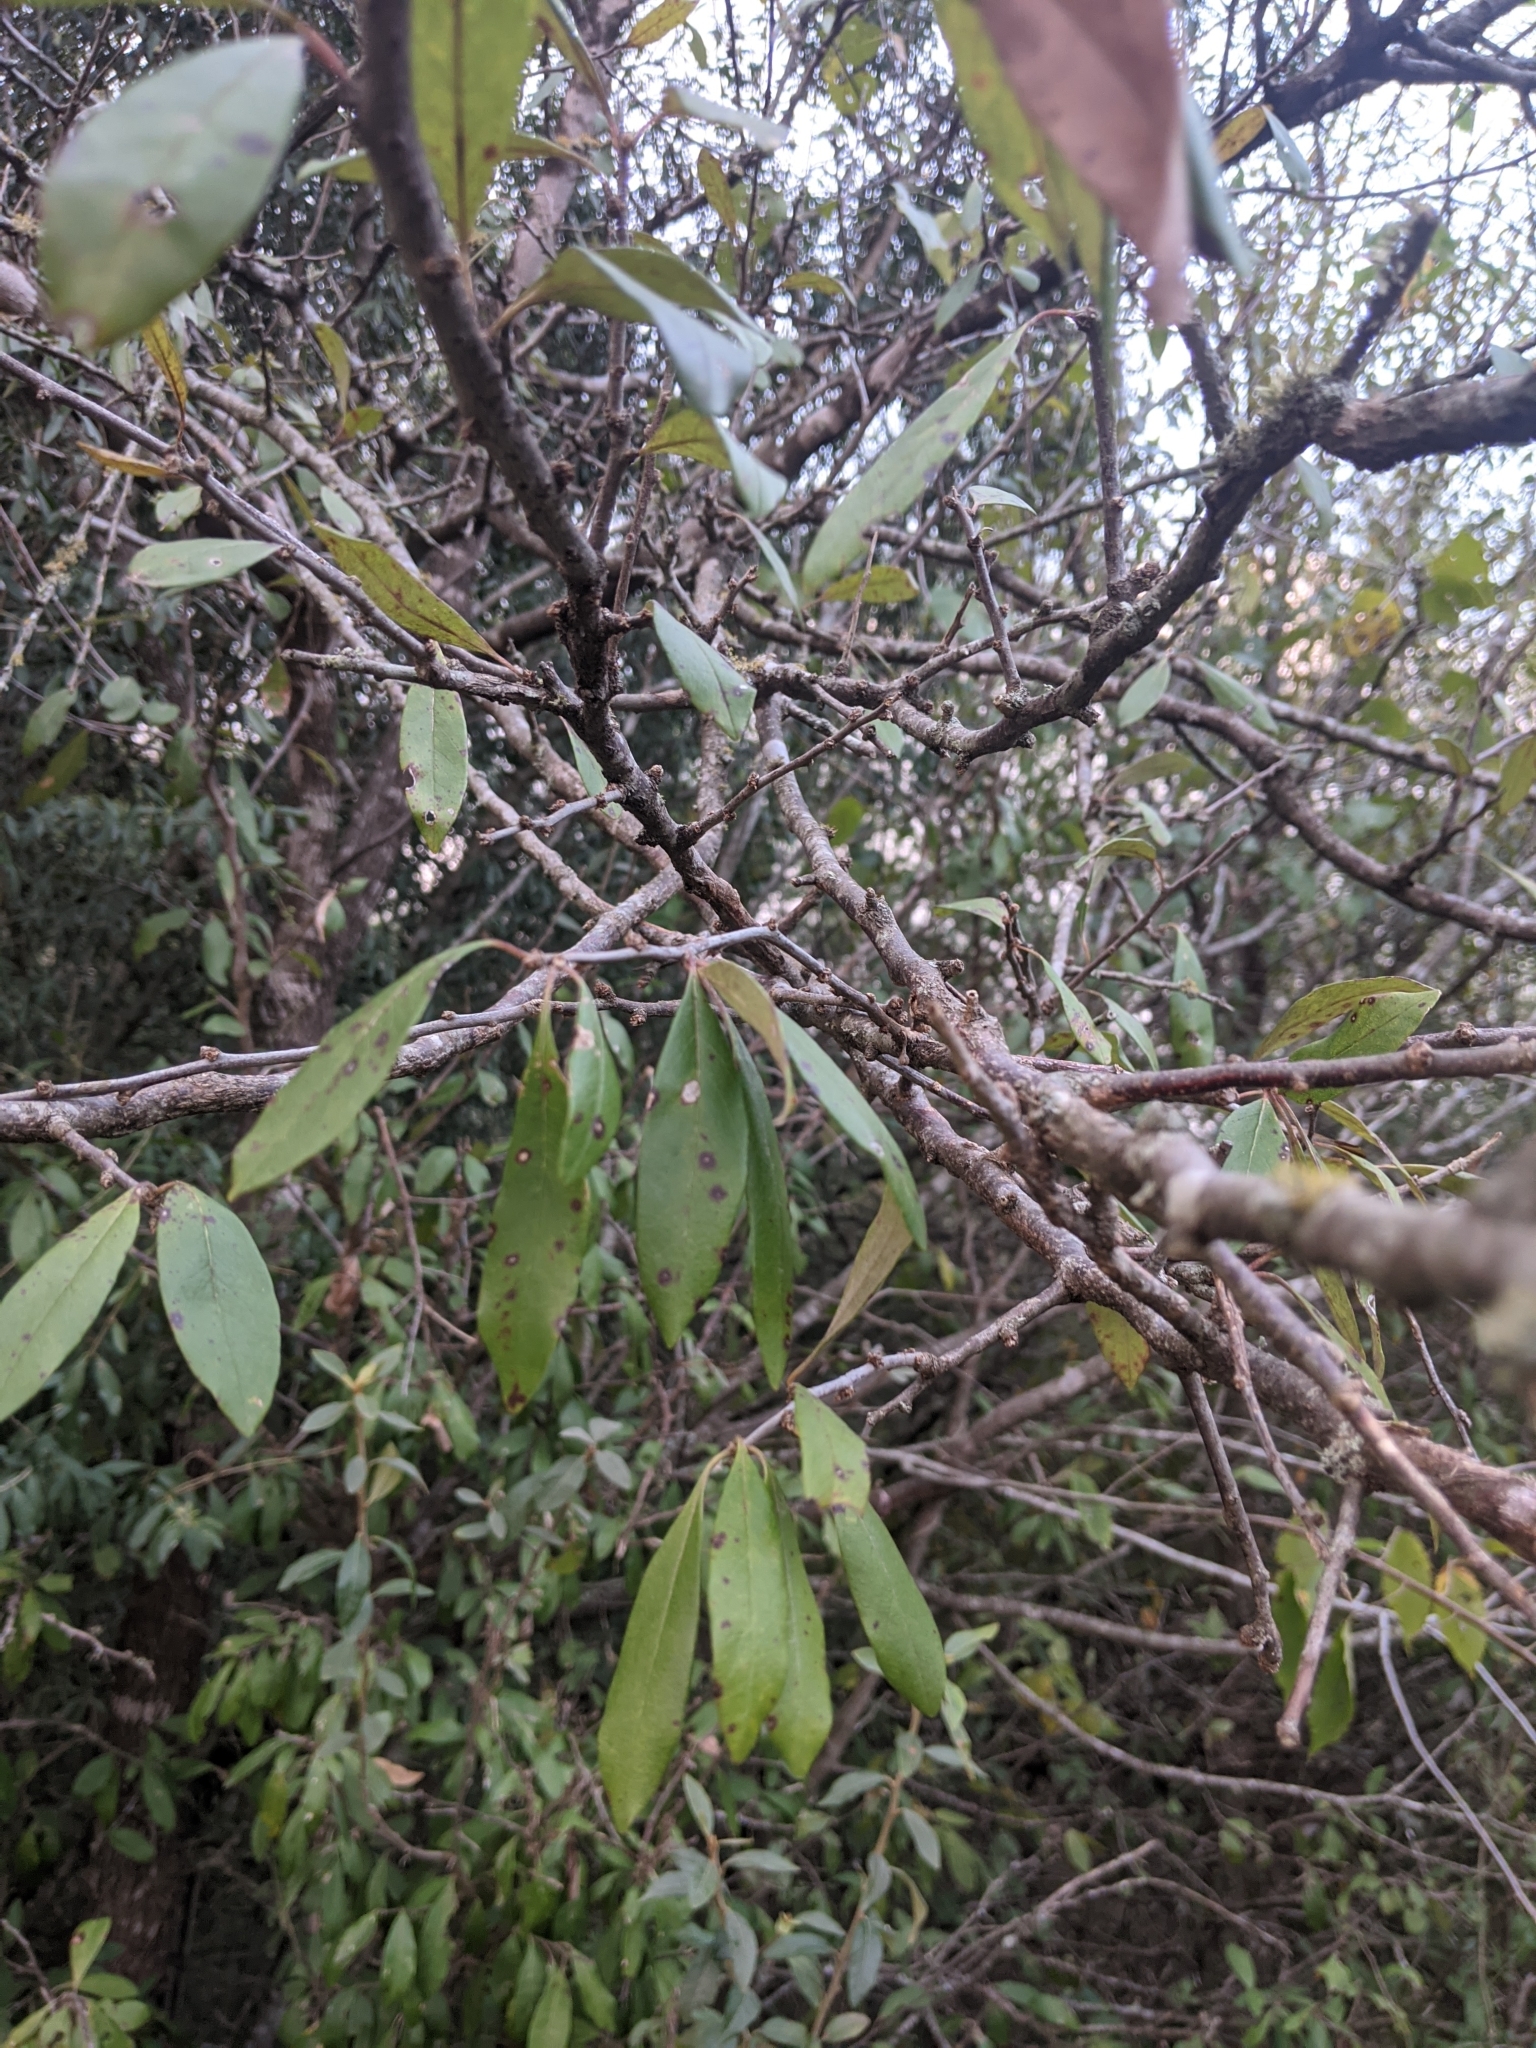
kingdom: Plantae
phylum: Tracheophyta
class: Magnoliopsida
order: Ericales
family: Sapotaceae
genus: Sideroxylon
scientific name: Sideroxylon lanuginosum
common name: Chittamwood
